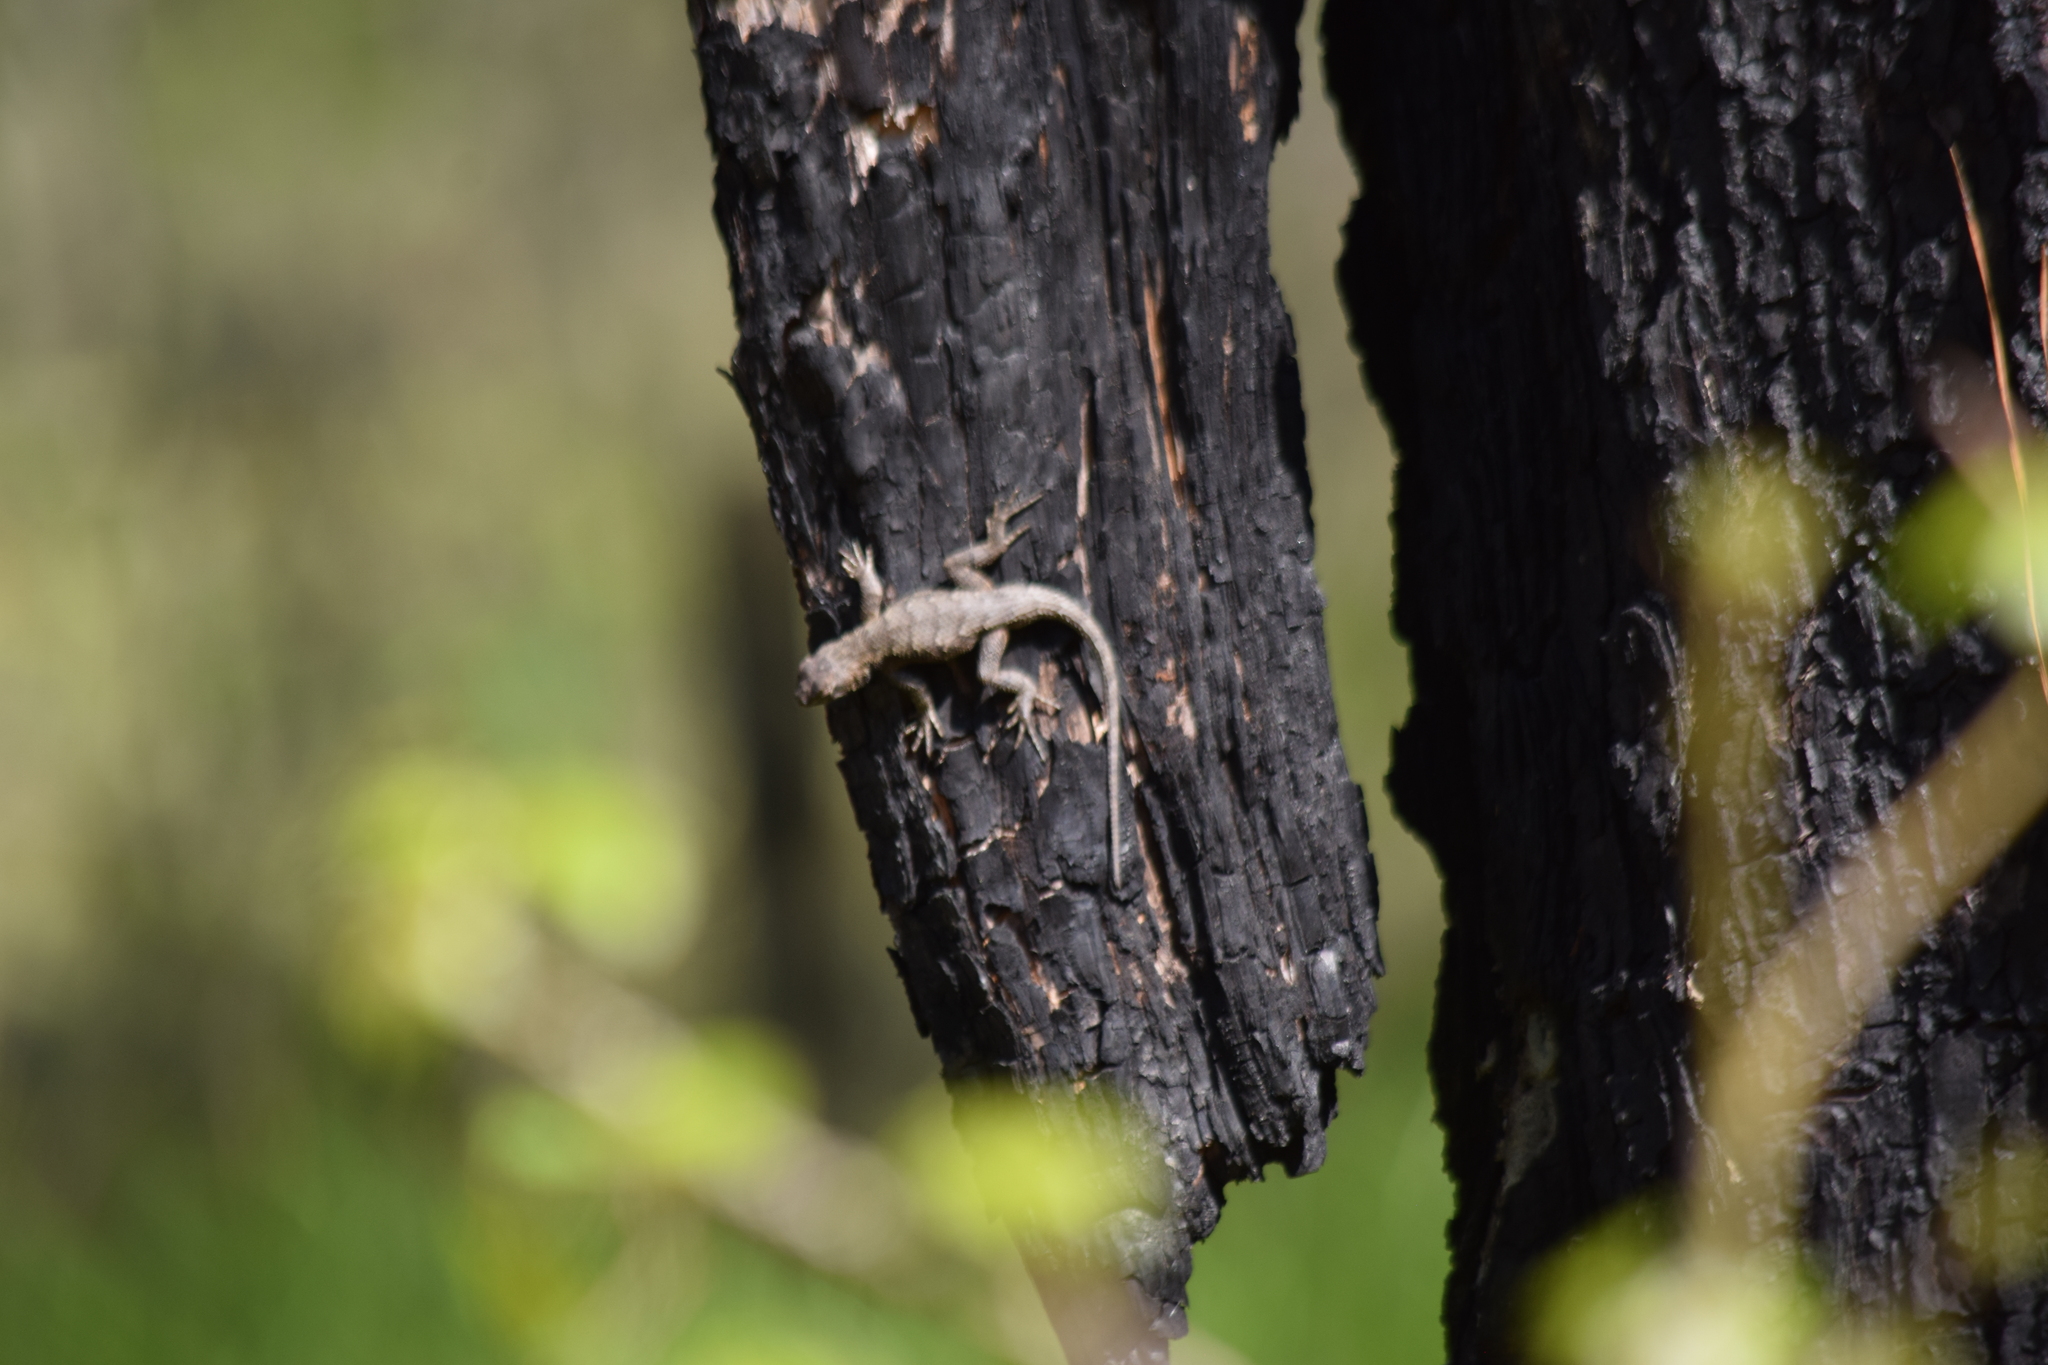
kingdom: Animalia
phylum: Chordata
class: Squamata
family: Phrynosomatidae
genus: Sceloporus
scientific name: Sceloporus undulatus
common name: Eastern fence lizard
